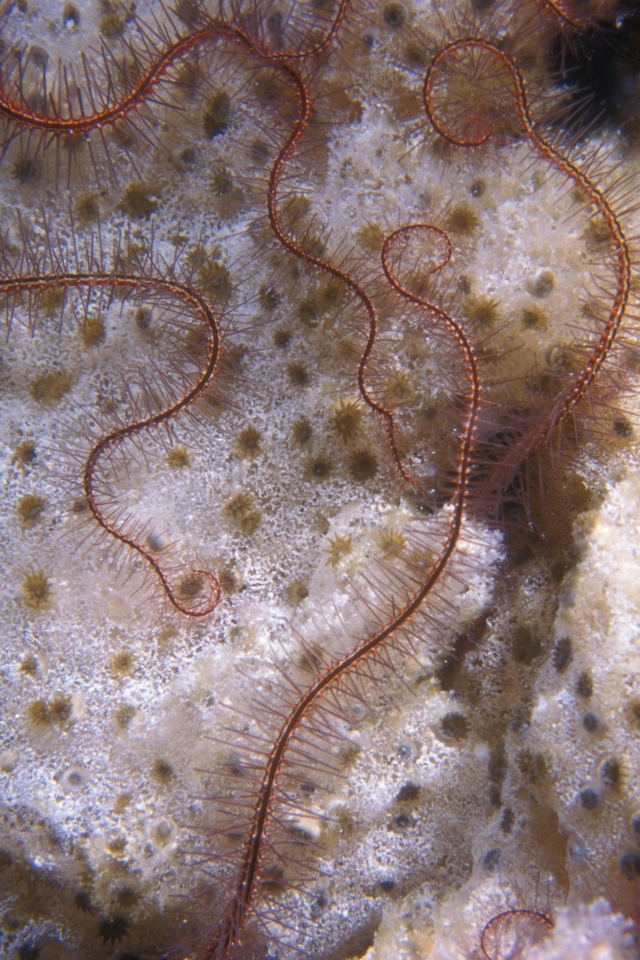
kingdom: Animalia
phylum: Echinodermata
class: Ophiuroidea
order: Amphilepidida
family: Ophiotrichidae
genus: Ophiothrix
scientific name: Ophiothrix suensonii
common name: Sponge brittle star
